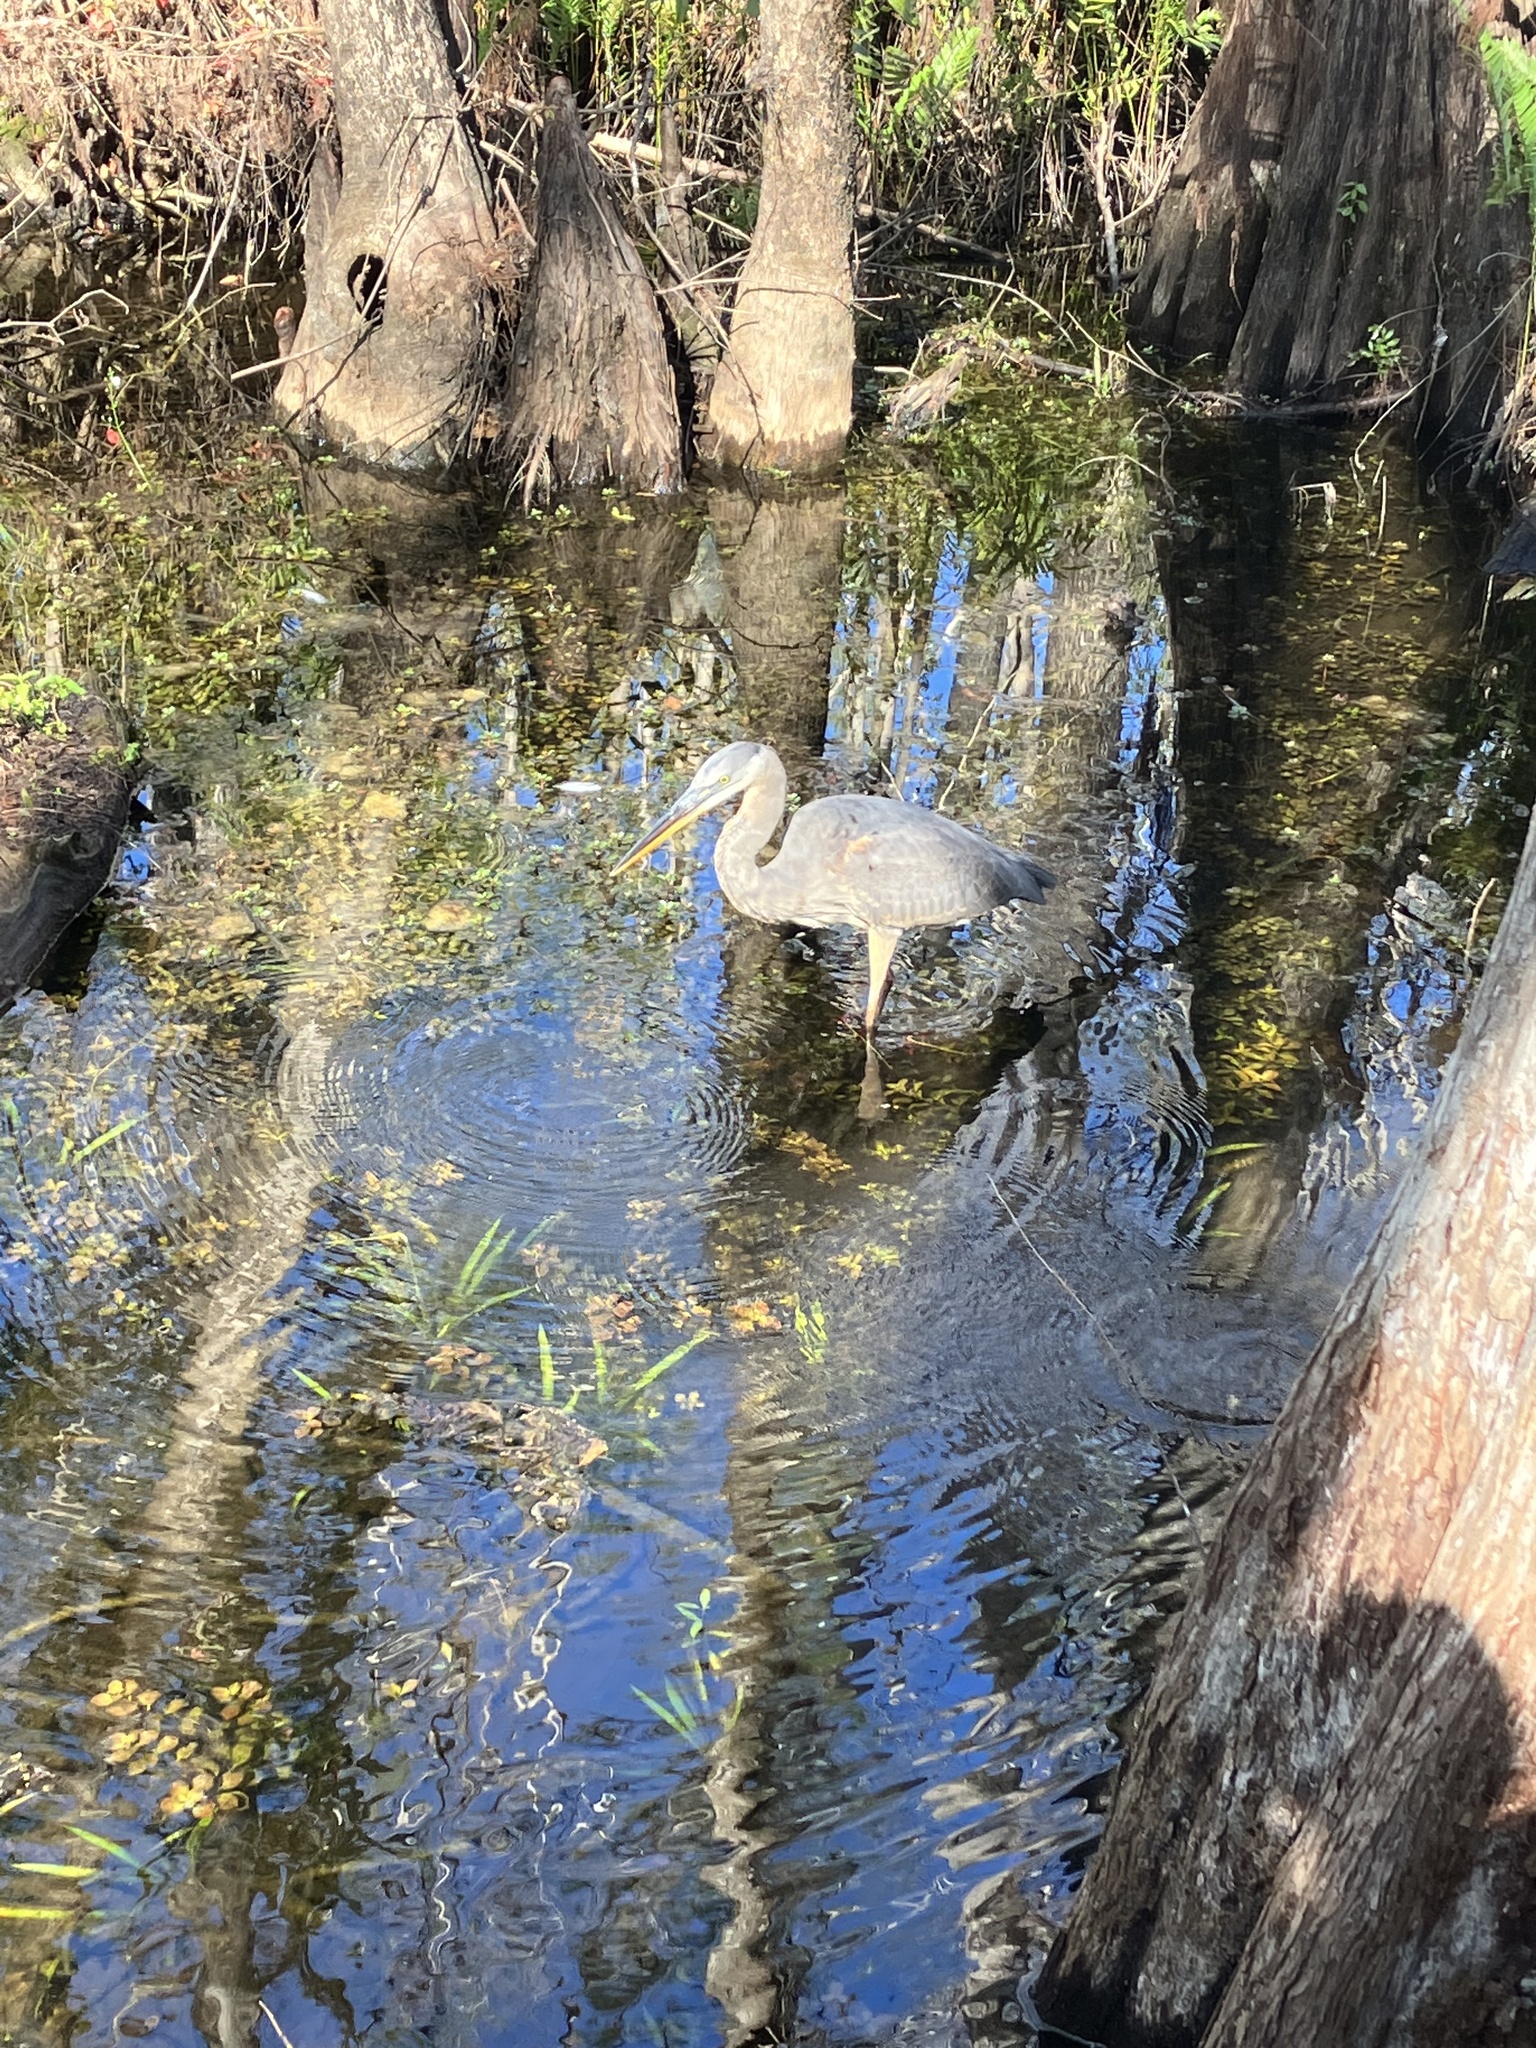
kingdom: Animalia
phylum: Chordata
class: Aves
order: Pelecaniformes
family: Ardeidae
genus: Ardea
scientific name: Ardea herodias
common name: Great blue heron
